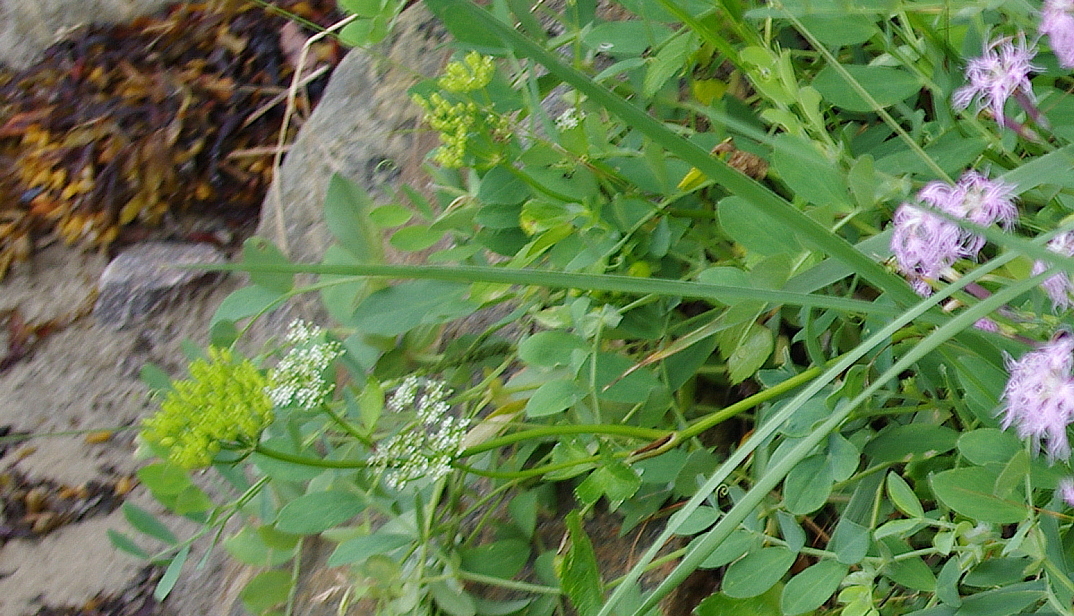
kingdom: Plantae
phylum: Tracheophyta
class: Magnoliopsida
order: Apiales
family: Apiaceae
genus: Ligusticum
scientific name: Ligusticum scothicum
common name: Beach lovage
